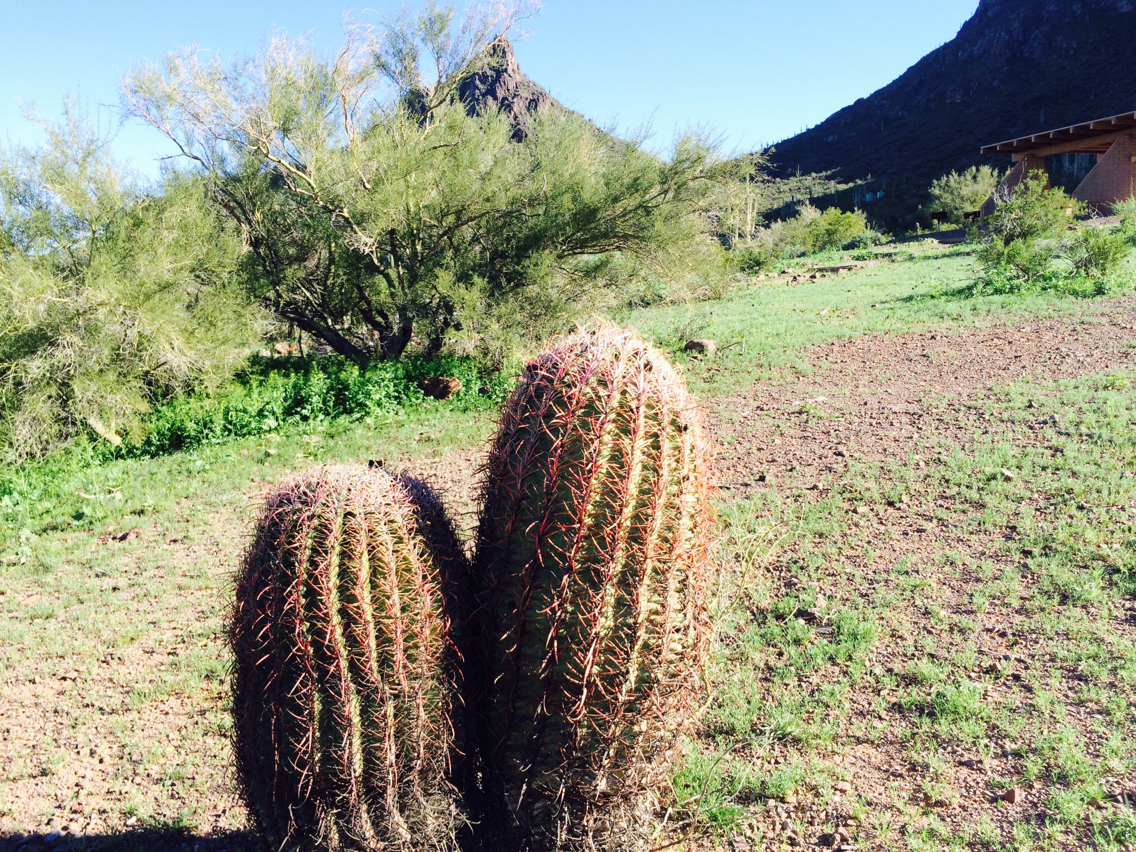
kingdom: Plantae
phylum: Tracheophyta
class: Magnoliopsida
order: Caryophyllales
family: Cactaceae
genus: Ferocactus
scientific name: Ferocactus cylindraceus
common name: California barrel cactus
